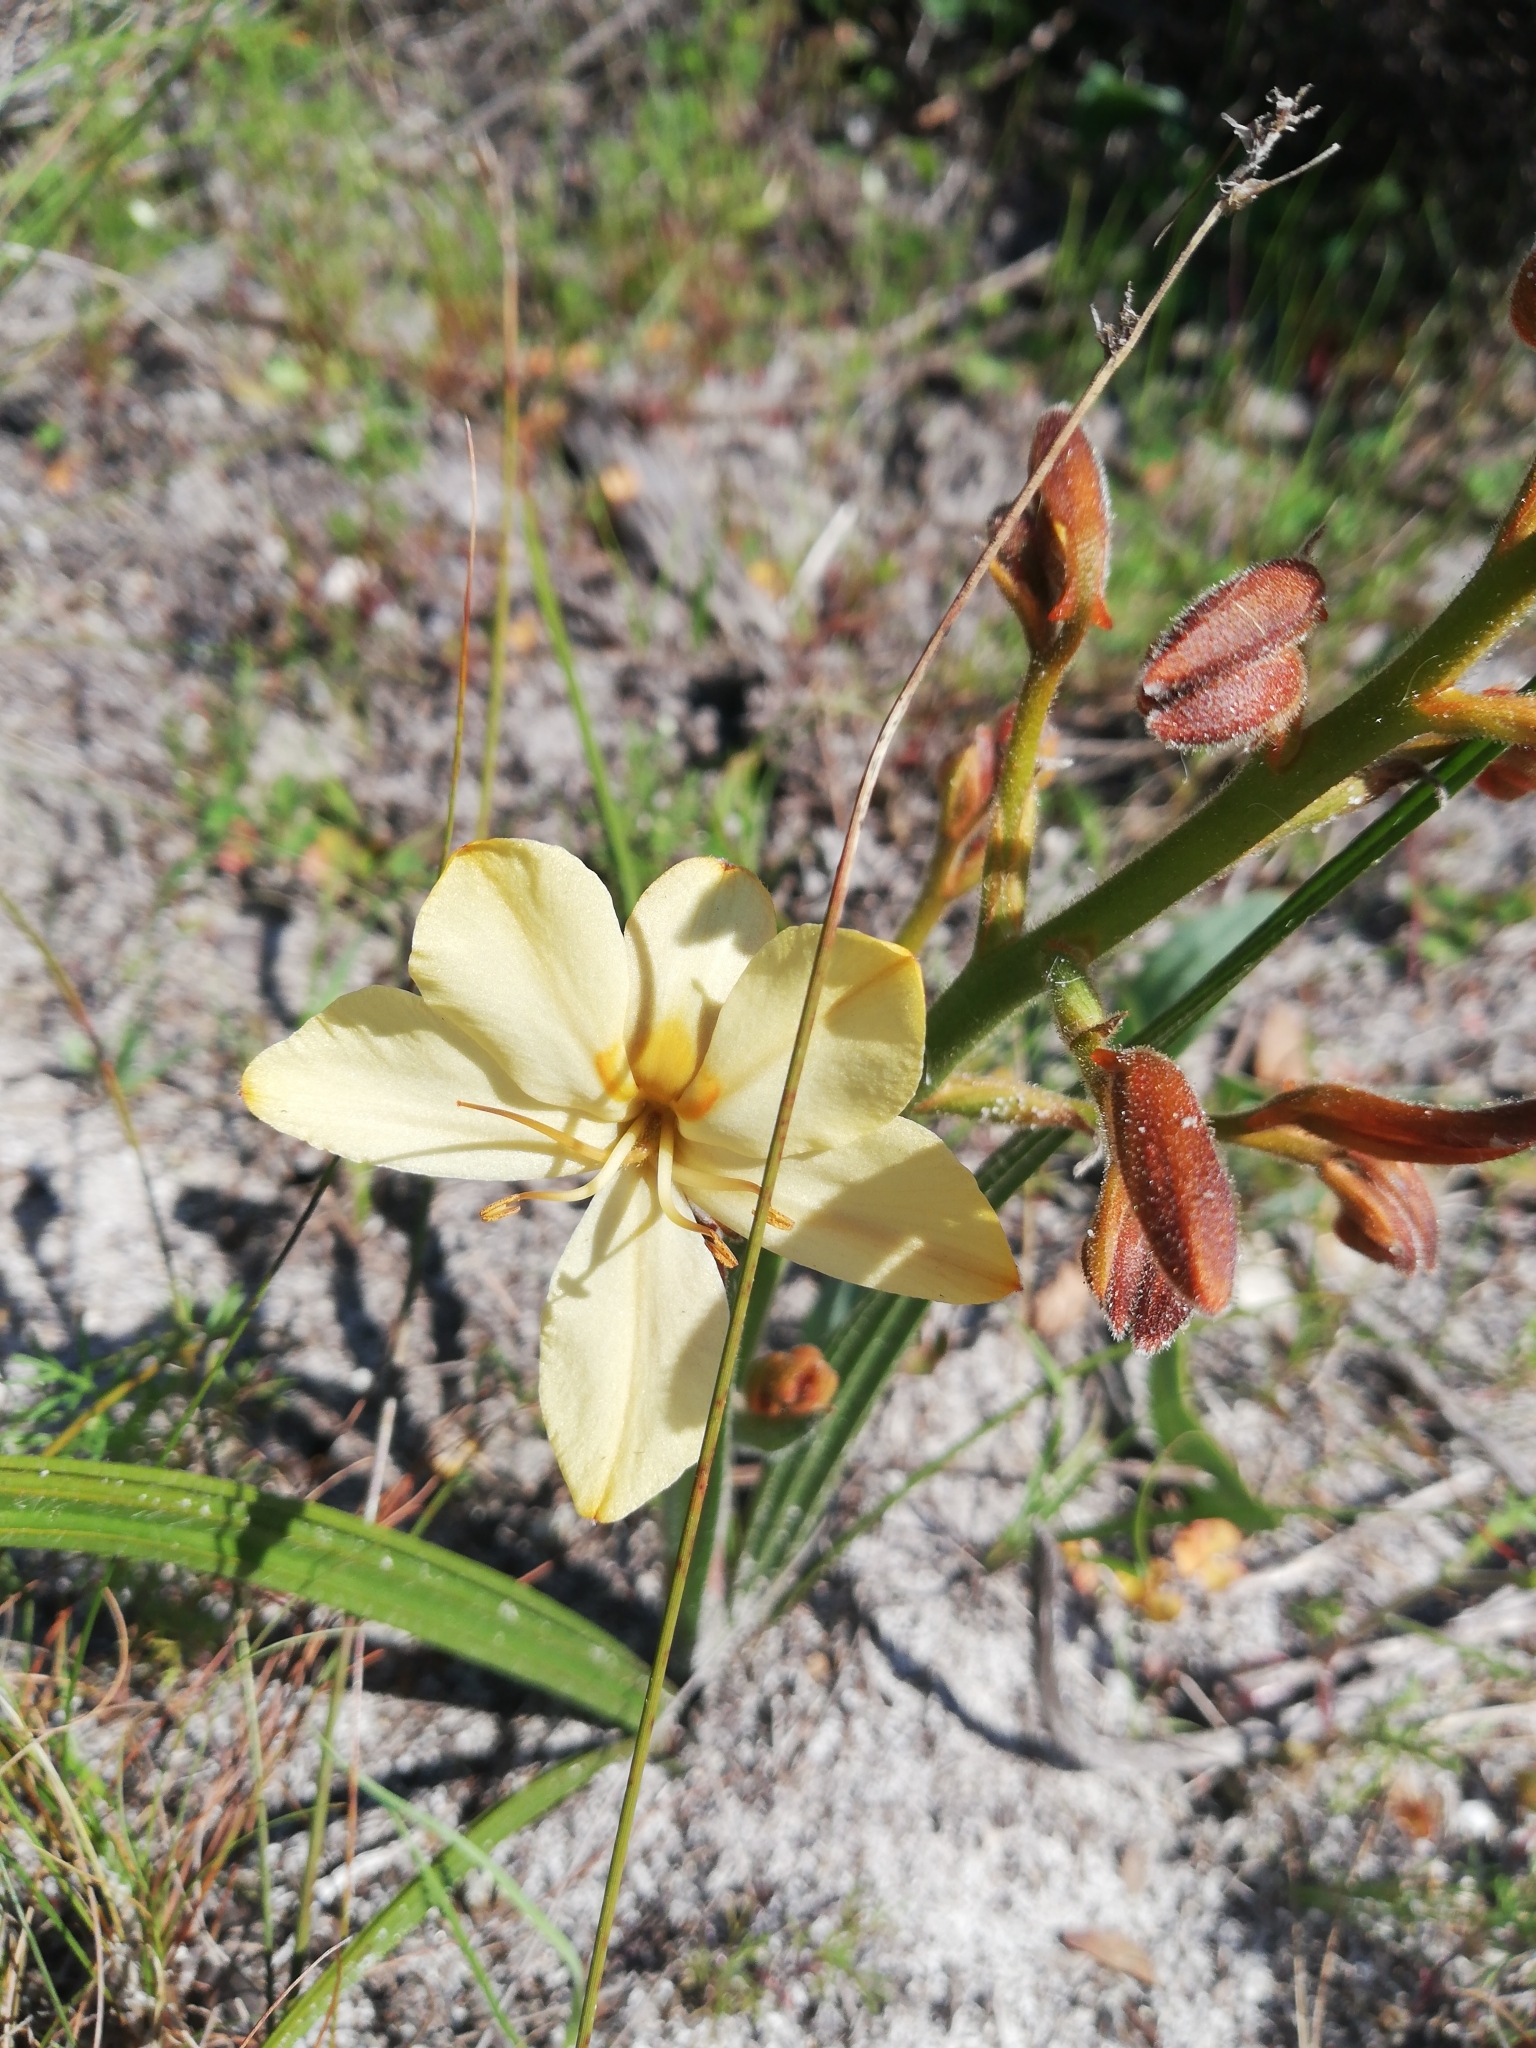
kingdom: Plantae
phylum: Tracheophyta
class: Liliopsida
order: Commelinales
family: Haemodoraceae
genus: Wachendorfia
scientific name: Wachendorfia paniculata
